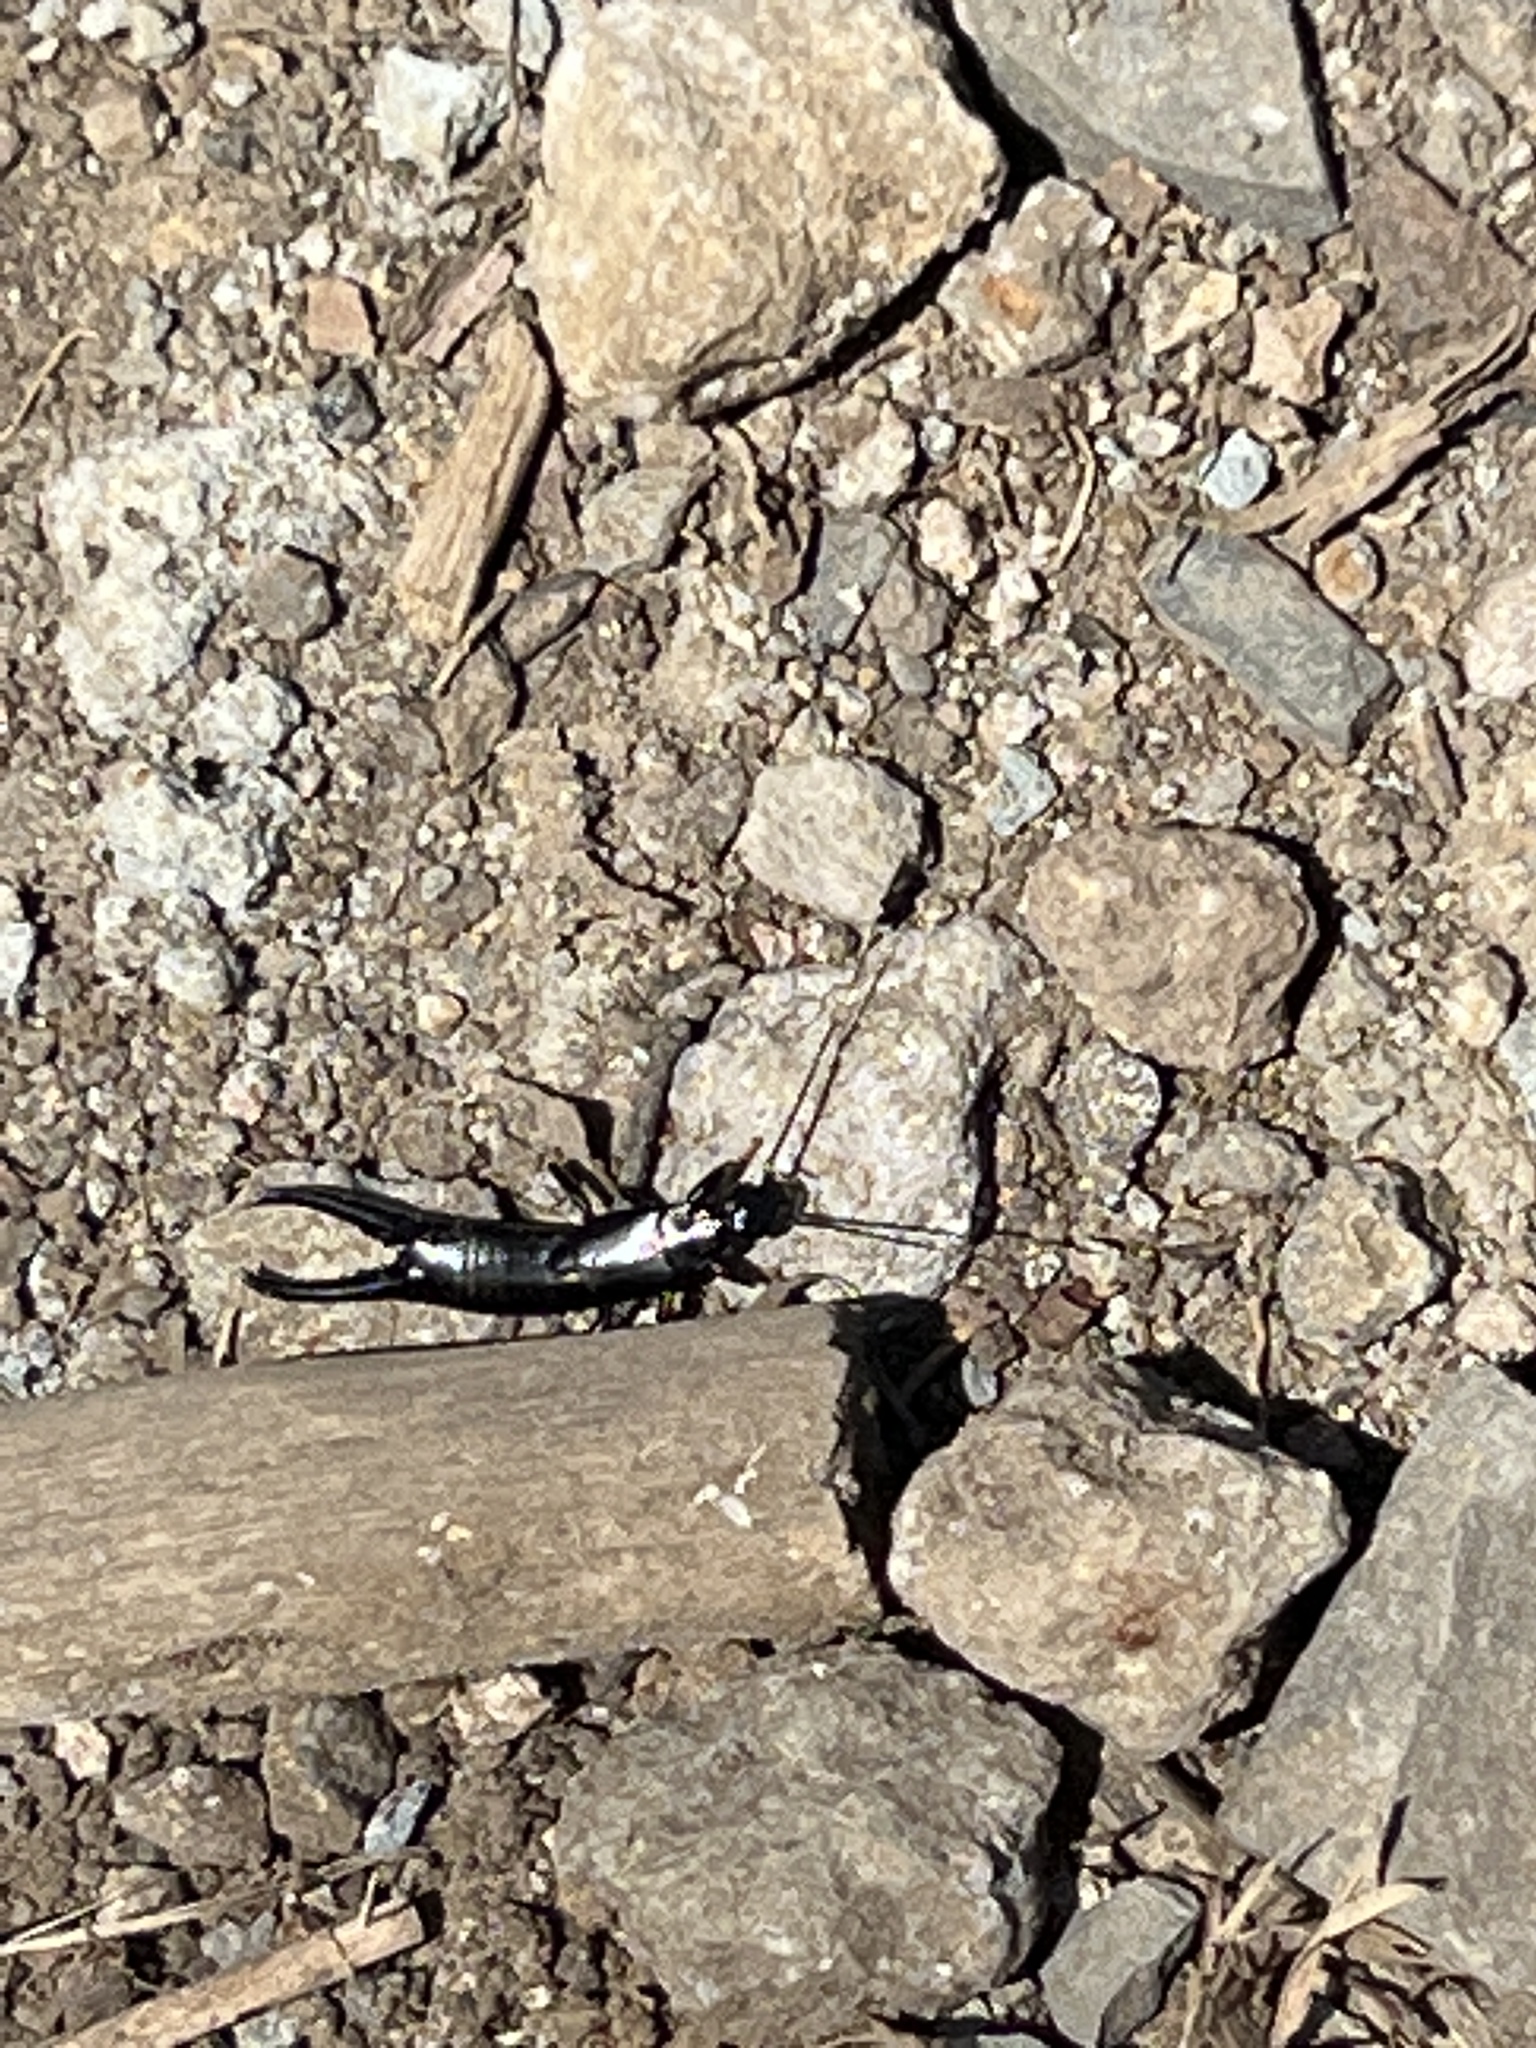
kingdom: Animalia
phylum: Arthropoda
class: Insecta
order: Dermaptera
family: Chelisochidae
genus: Chelisoches
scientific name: Chelisoches morio
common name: Black earwig
